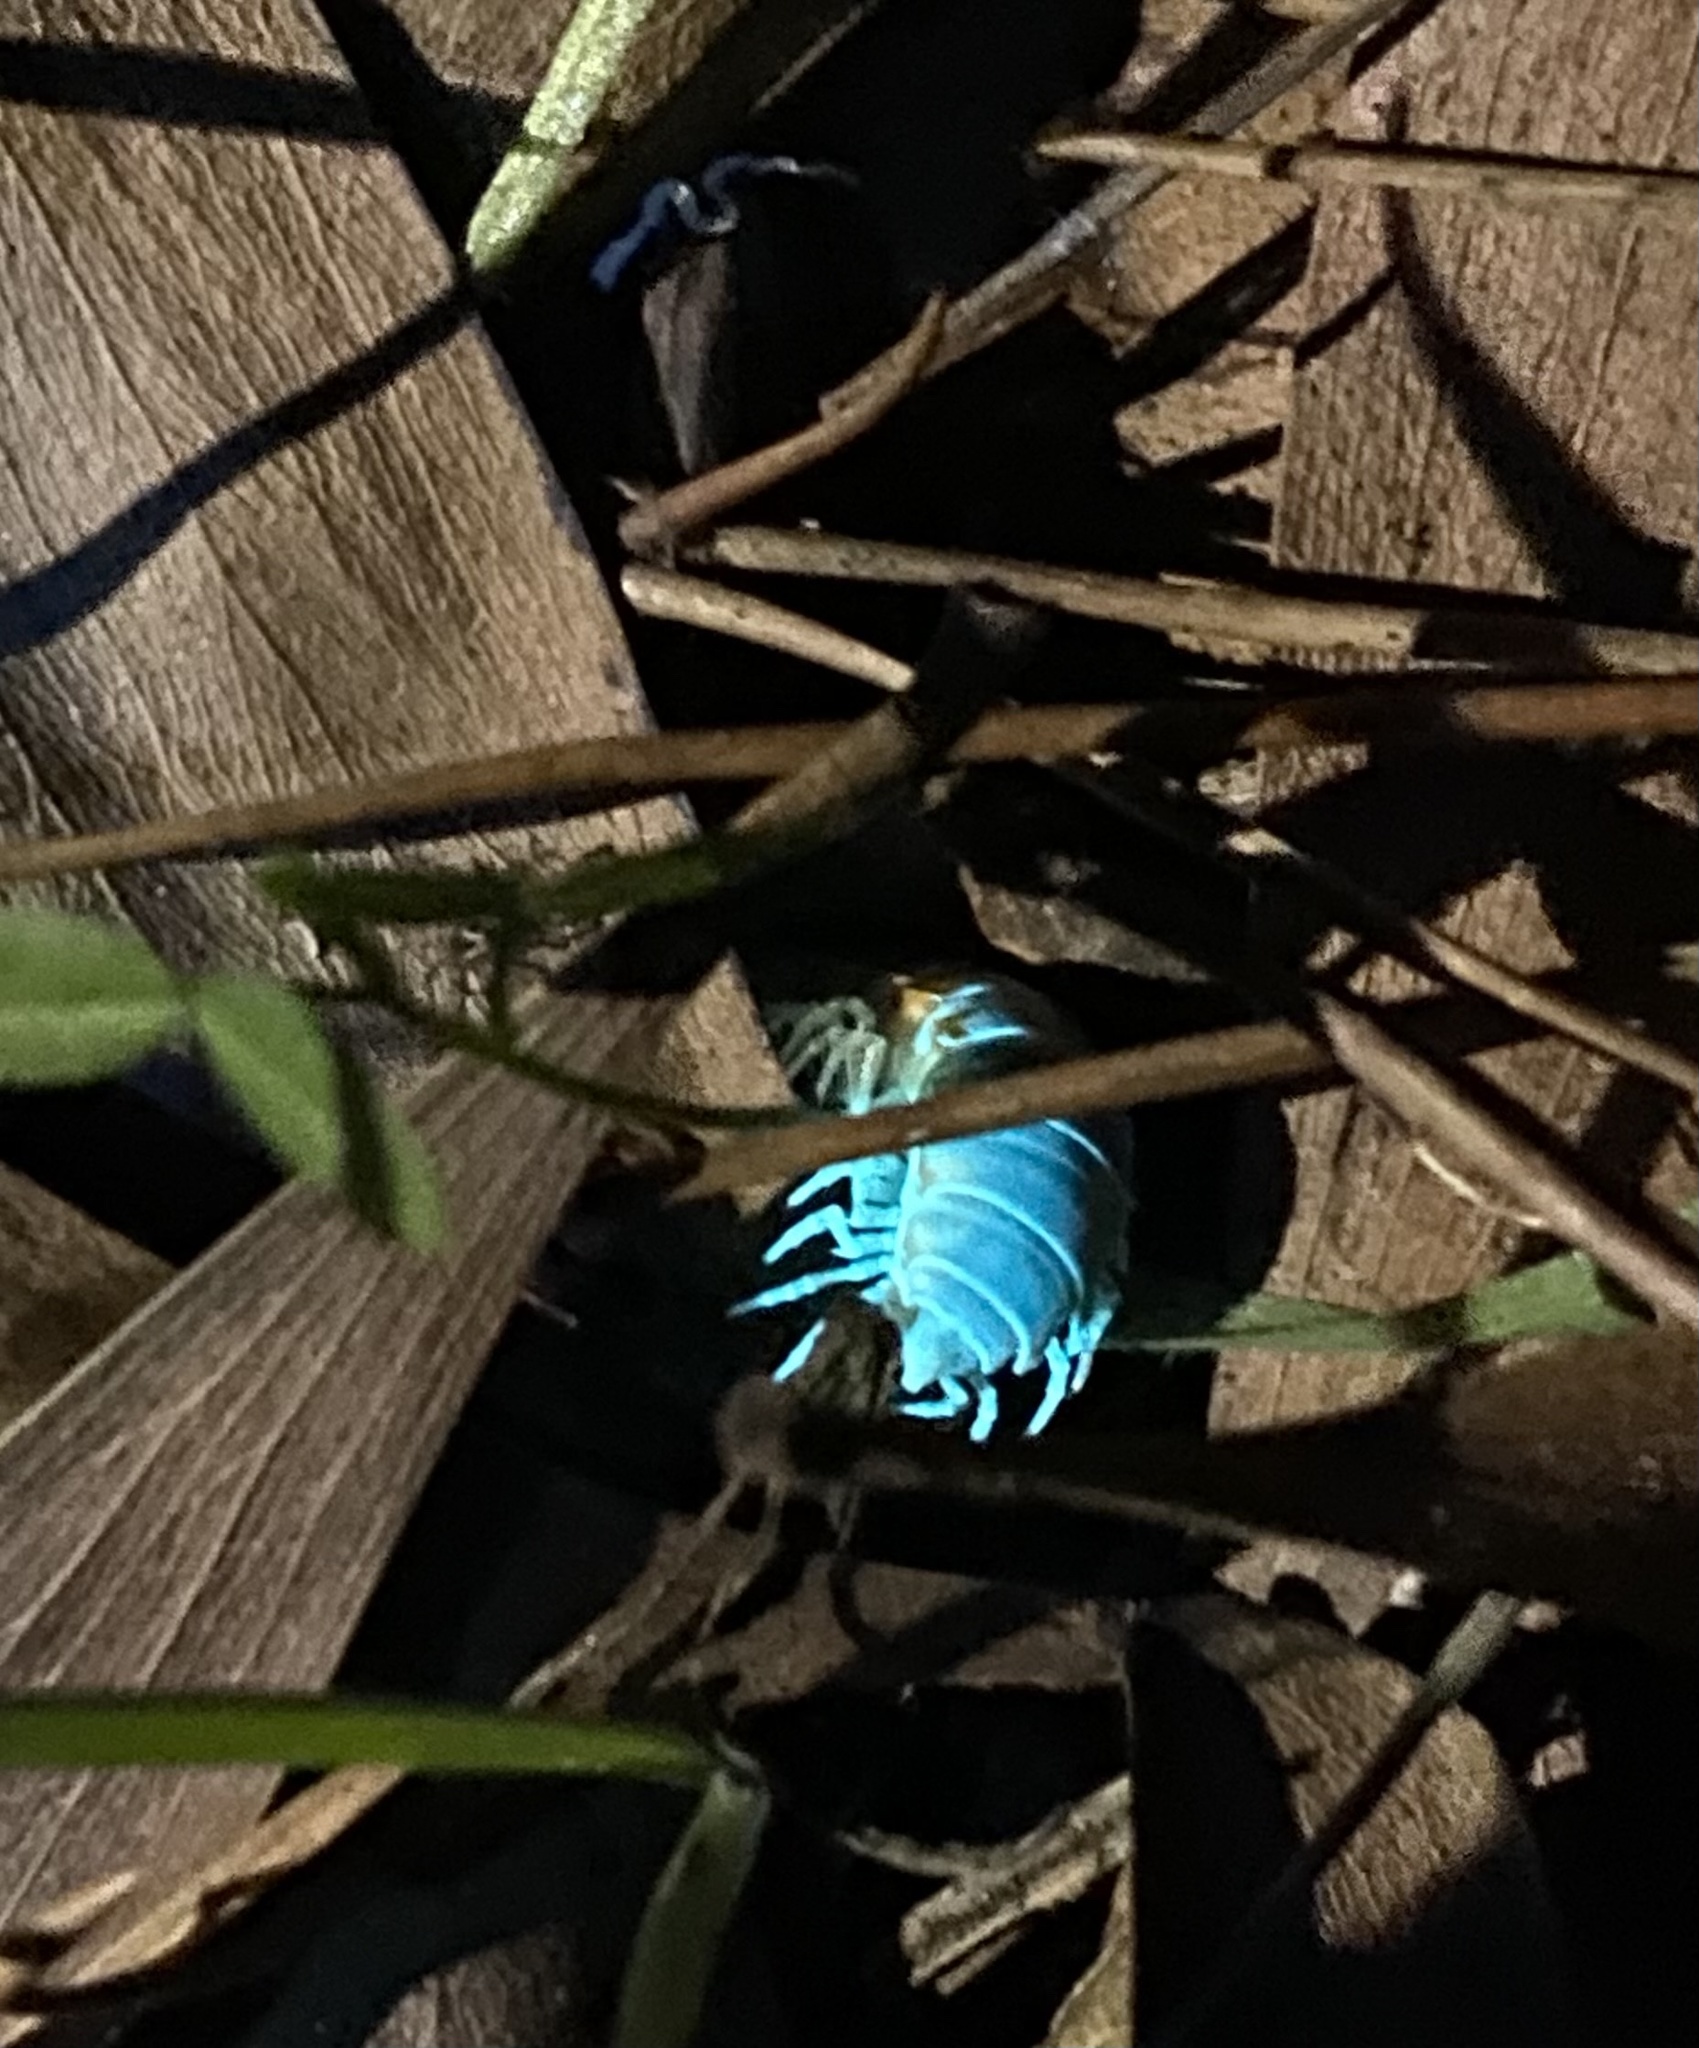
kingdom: Animalia
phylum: Arthropoda
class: Diplopoda
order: Polydesmida
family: Xystodesmidae
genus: Xystocheir
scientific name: Xystocheir dissecta
